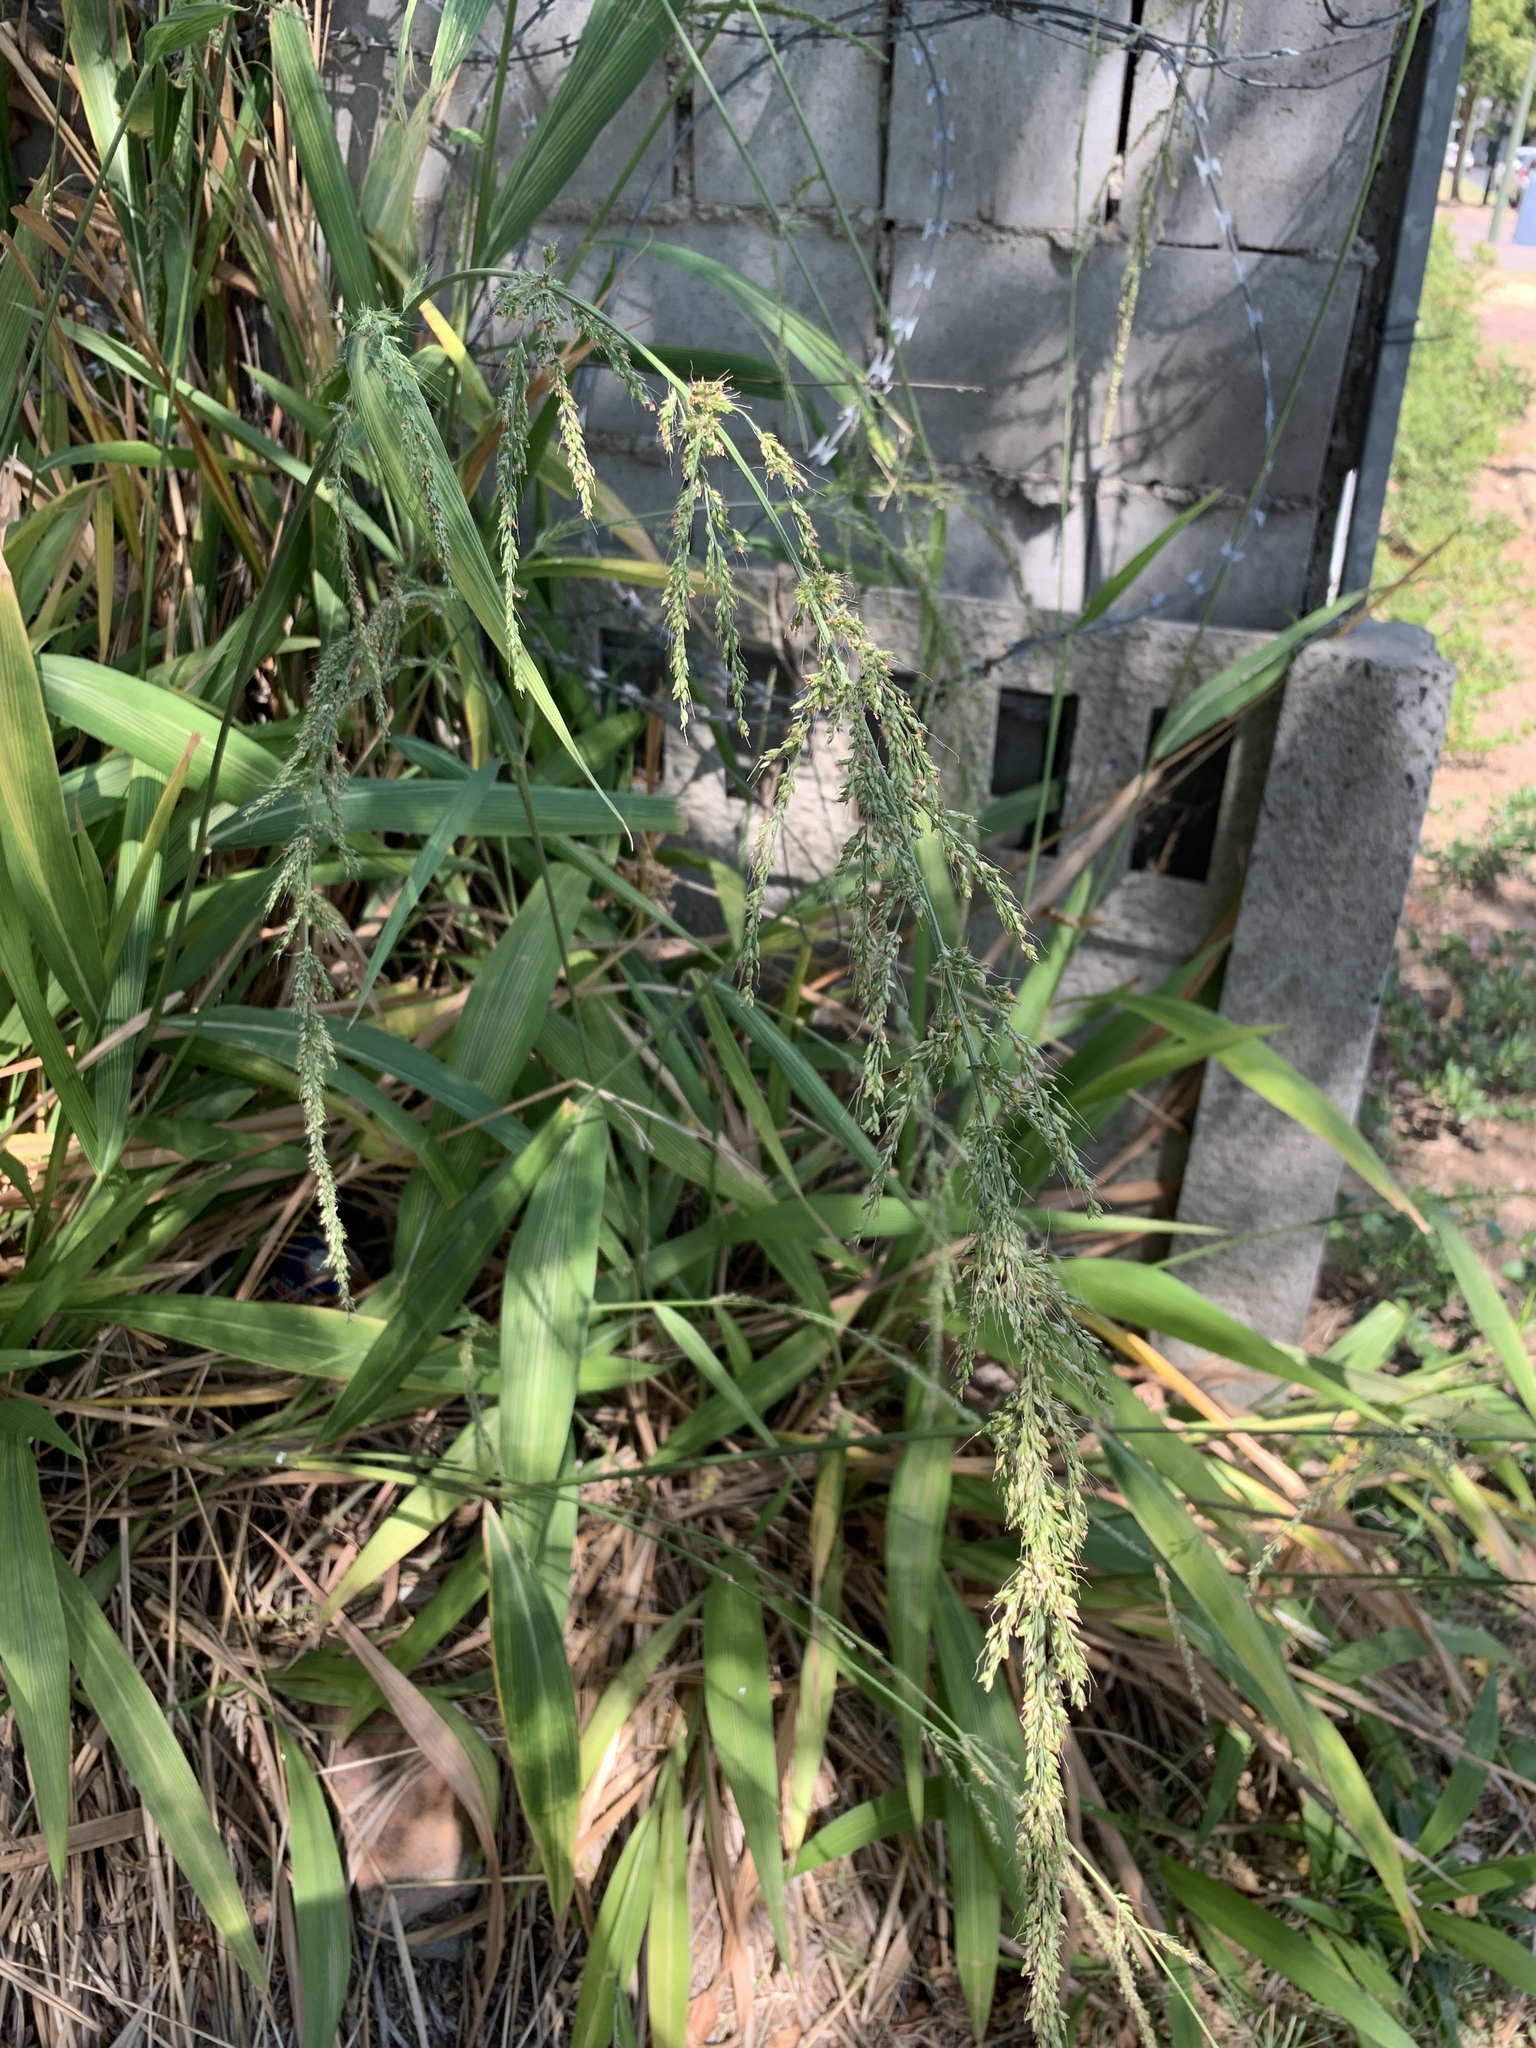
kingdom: Plantae
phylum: Tracheophyta
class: Liliopsida
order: Poales
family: Poaceae
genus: Setaria
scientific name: Setaria megaphylla
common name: Bigleaf bristlegrass
